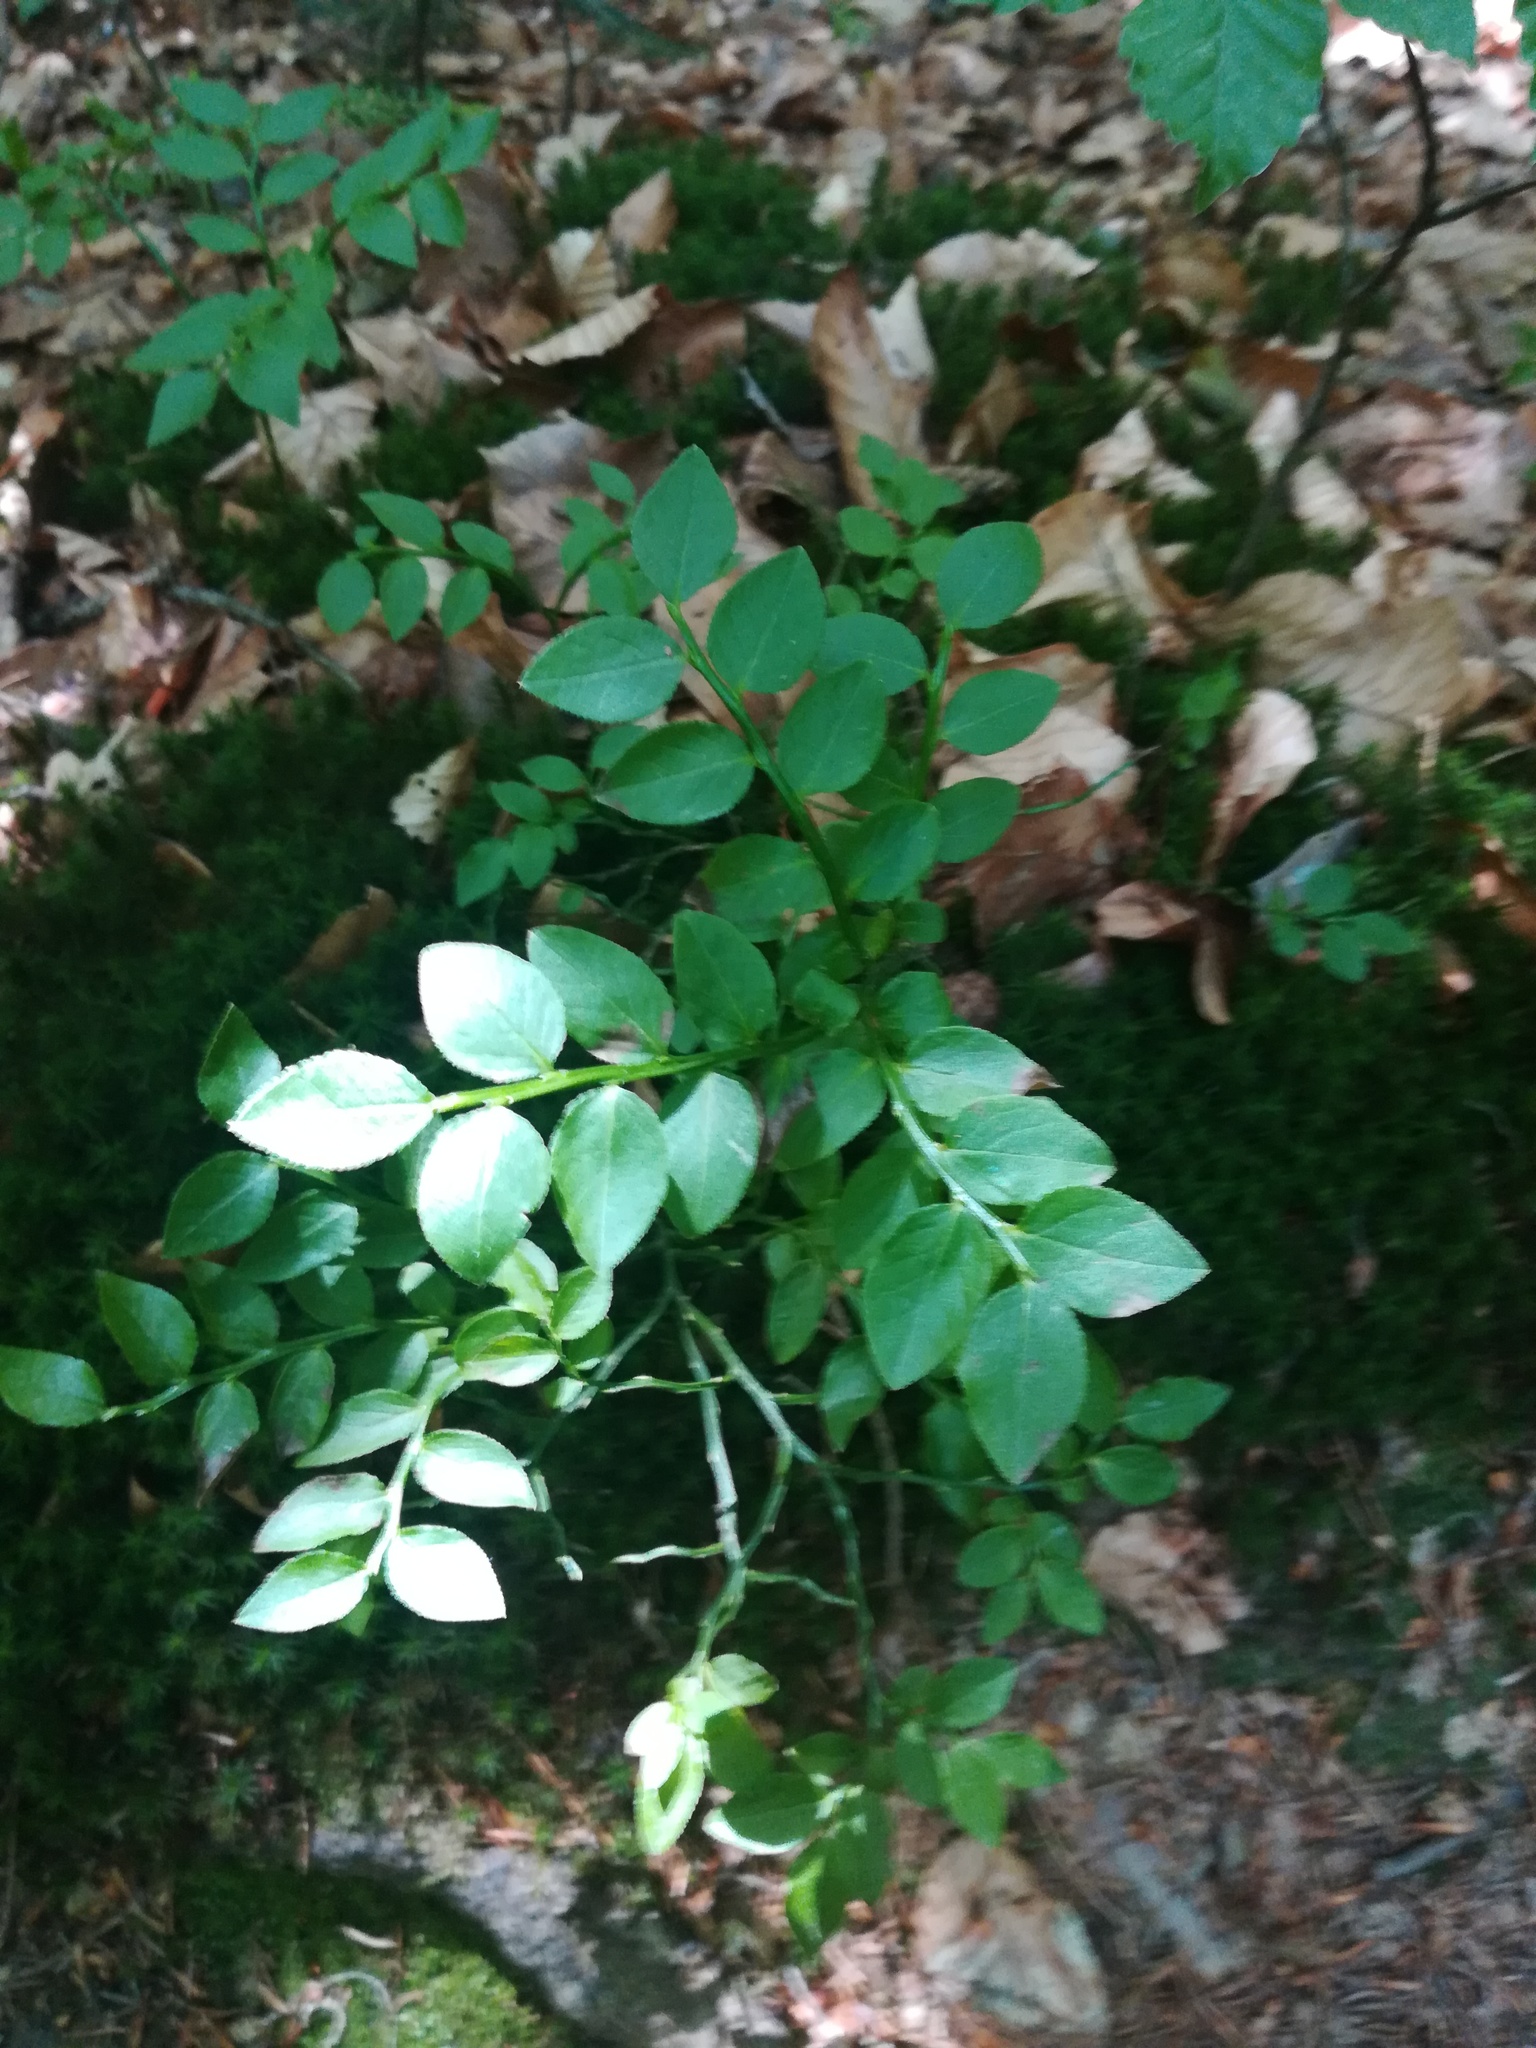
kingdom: Plantae
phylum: Tracheophyta
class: Magnoliopsida
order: Ericales
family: Ericaceae
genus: Vaccinium
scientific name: Vaccinium myrtillus
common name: Bilberry
